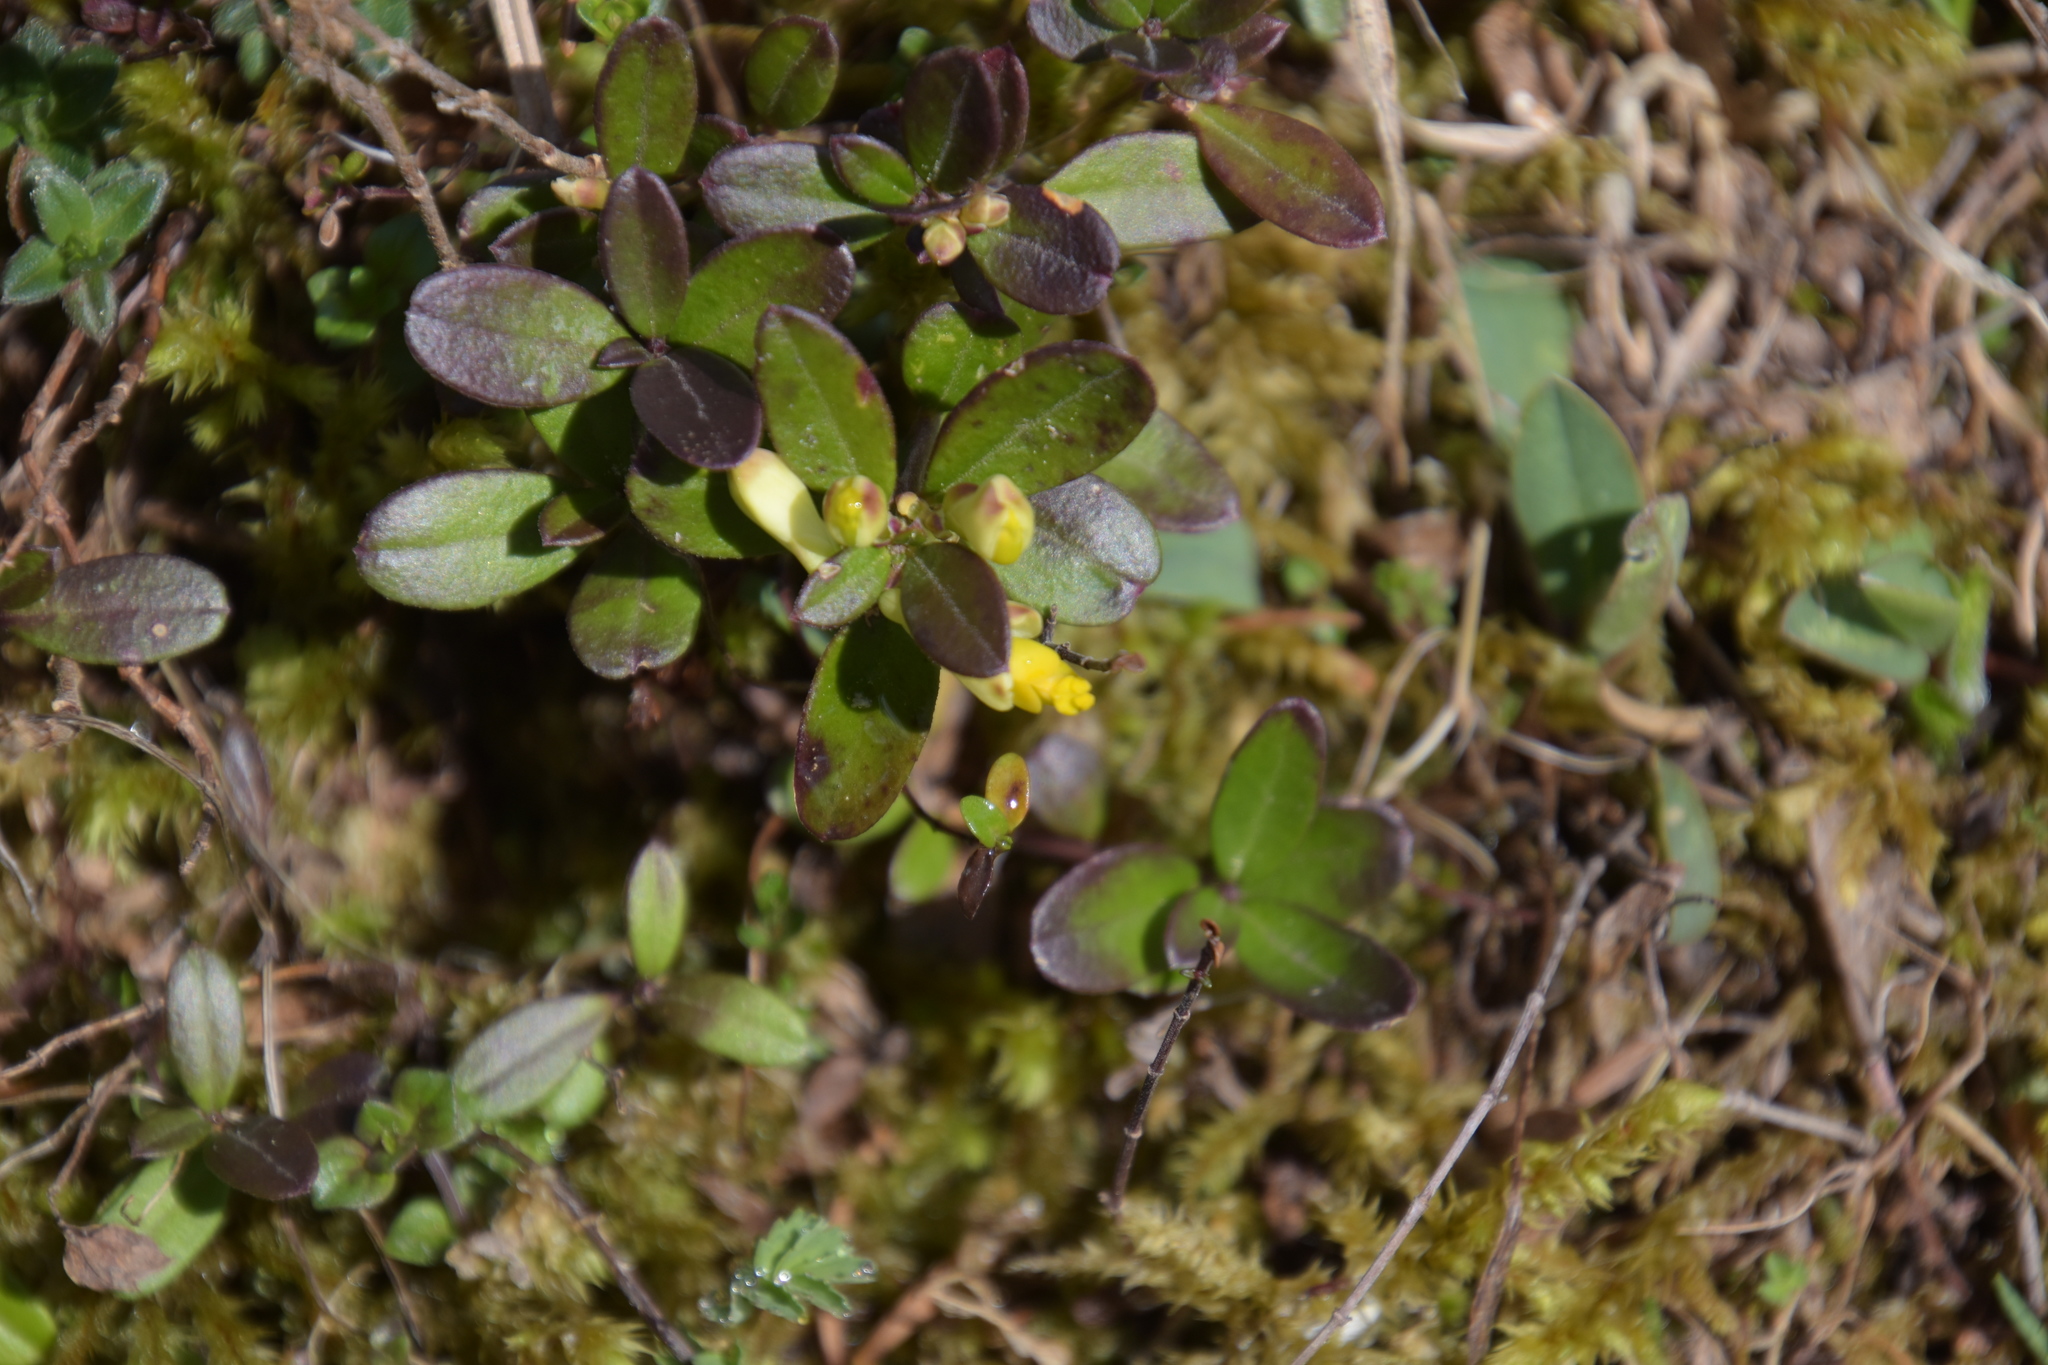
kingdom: Plantae
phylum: Tracheophyta
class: Magnoliopsida
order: Fabales
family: Polygalaceae
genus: Polygaloides
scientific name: Polygaloides chamaebuxus
